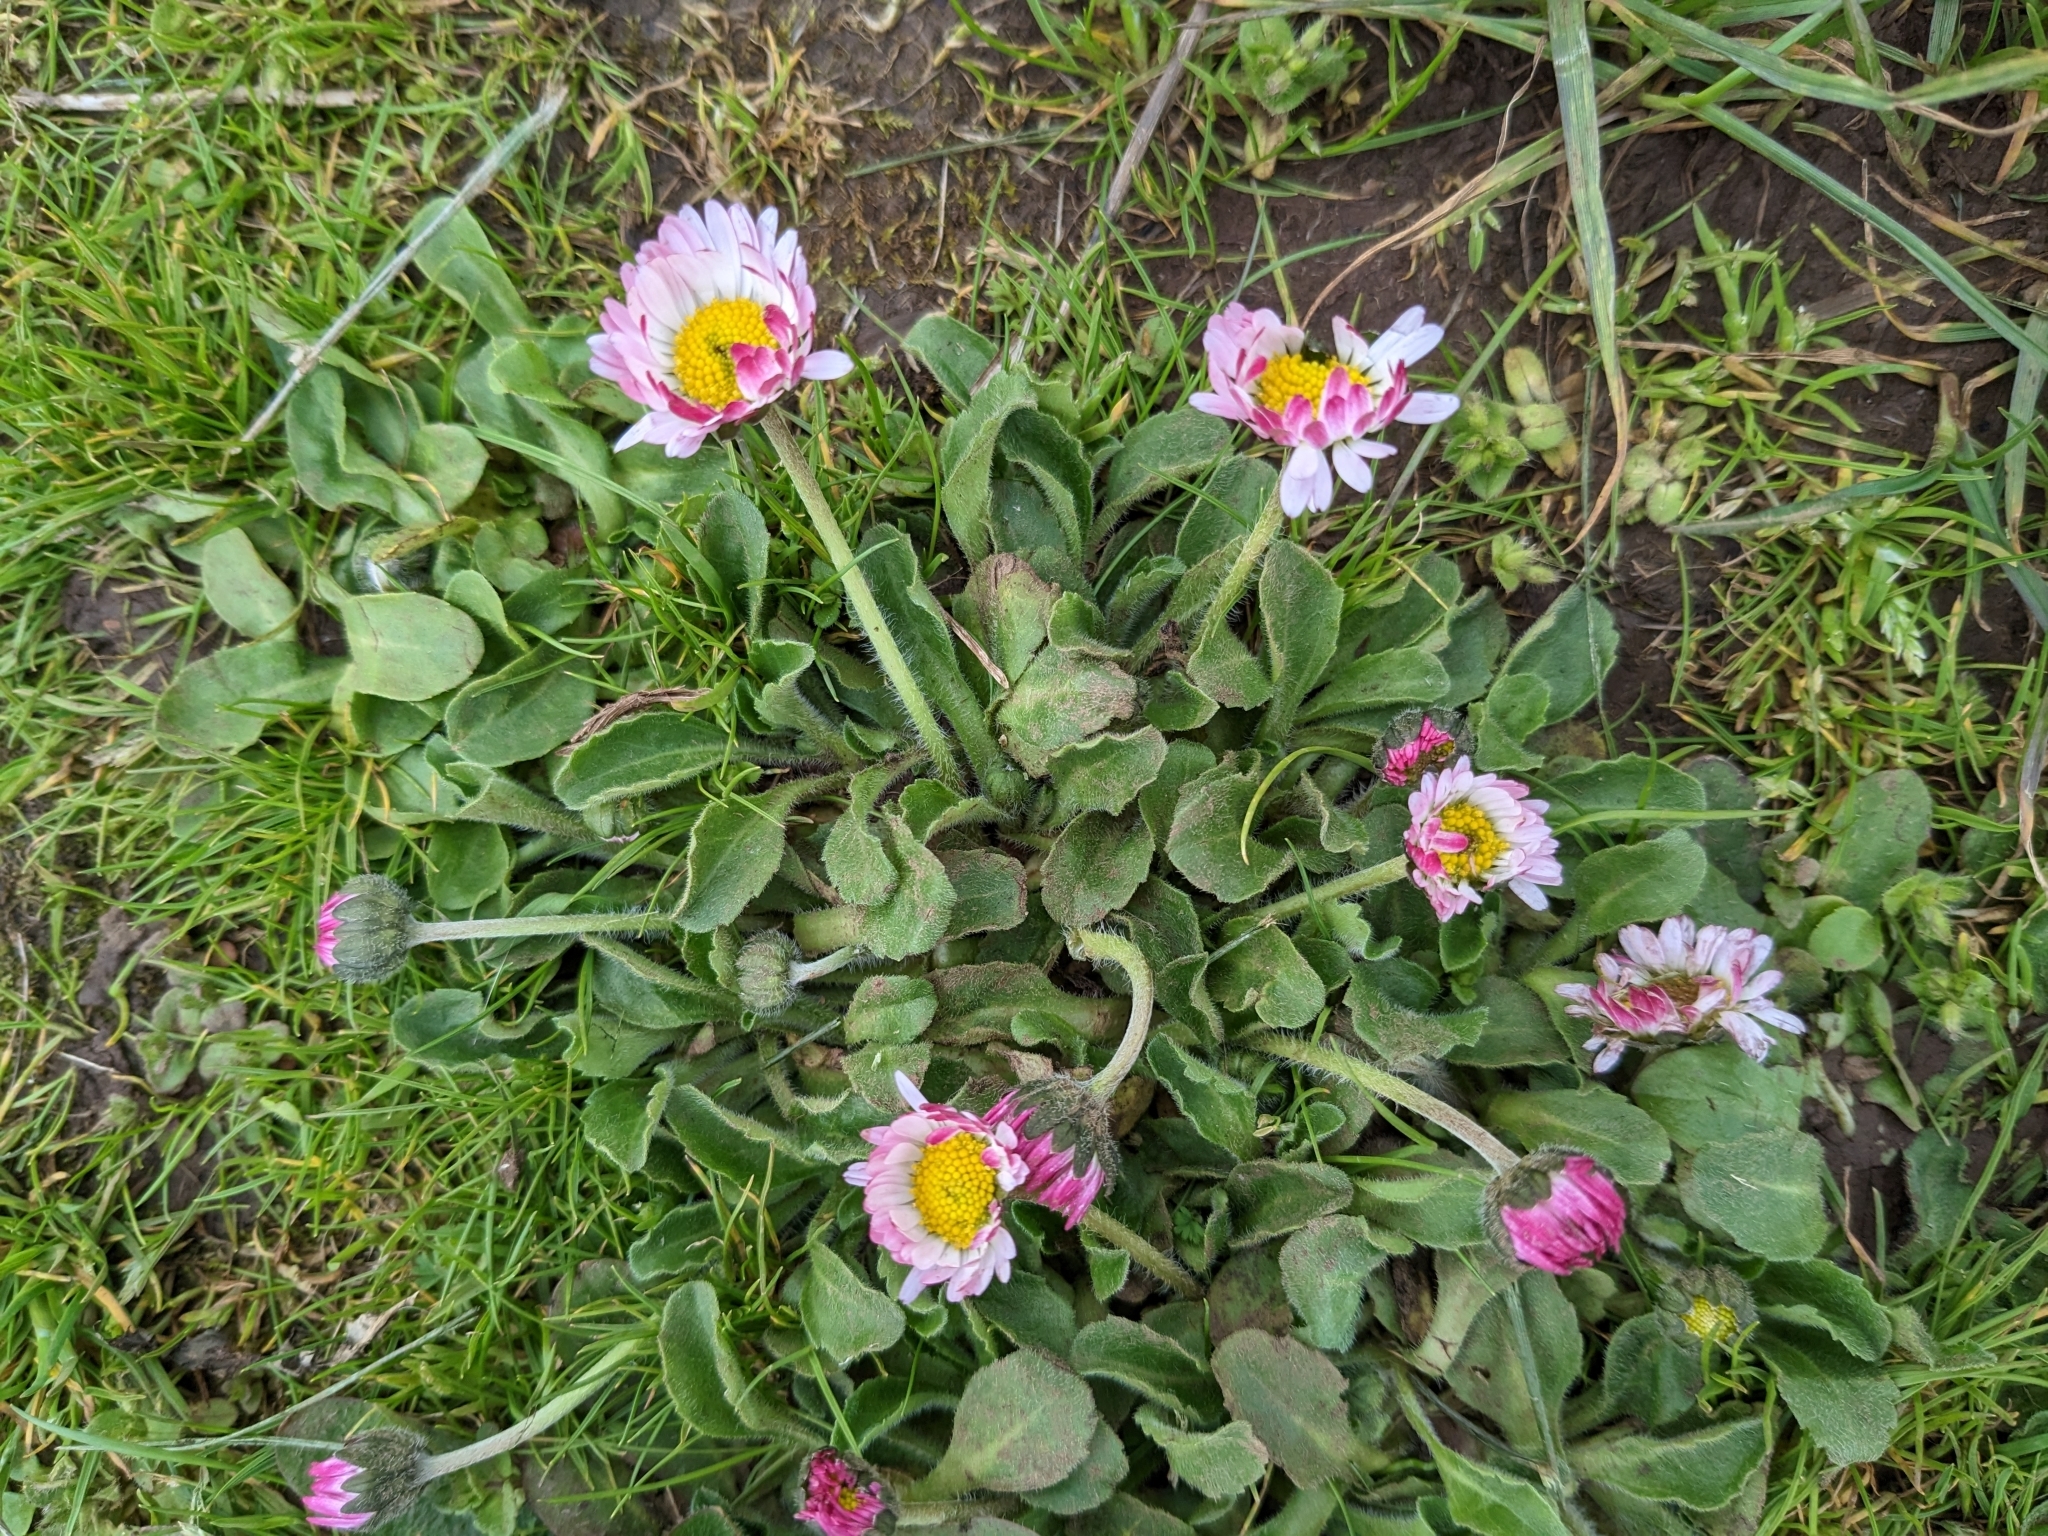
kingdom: Plantae
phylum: Tracheophyta
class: Magnoliopsida
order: Asterales
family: Asteraceae
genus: Bellis
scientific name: Bellis perennis
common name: Lawndaisy
